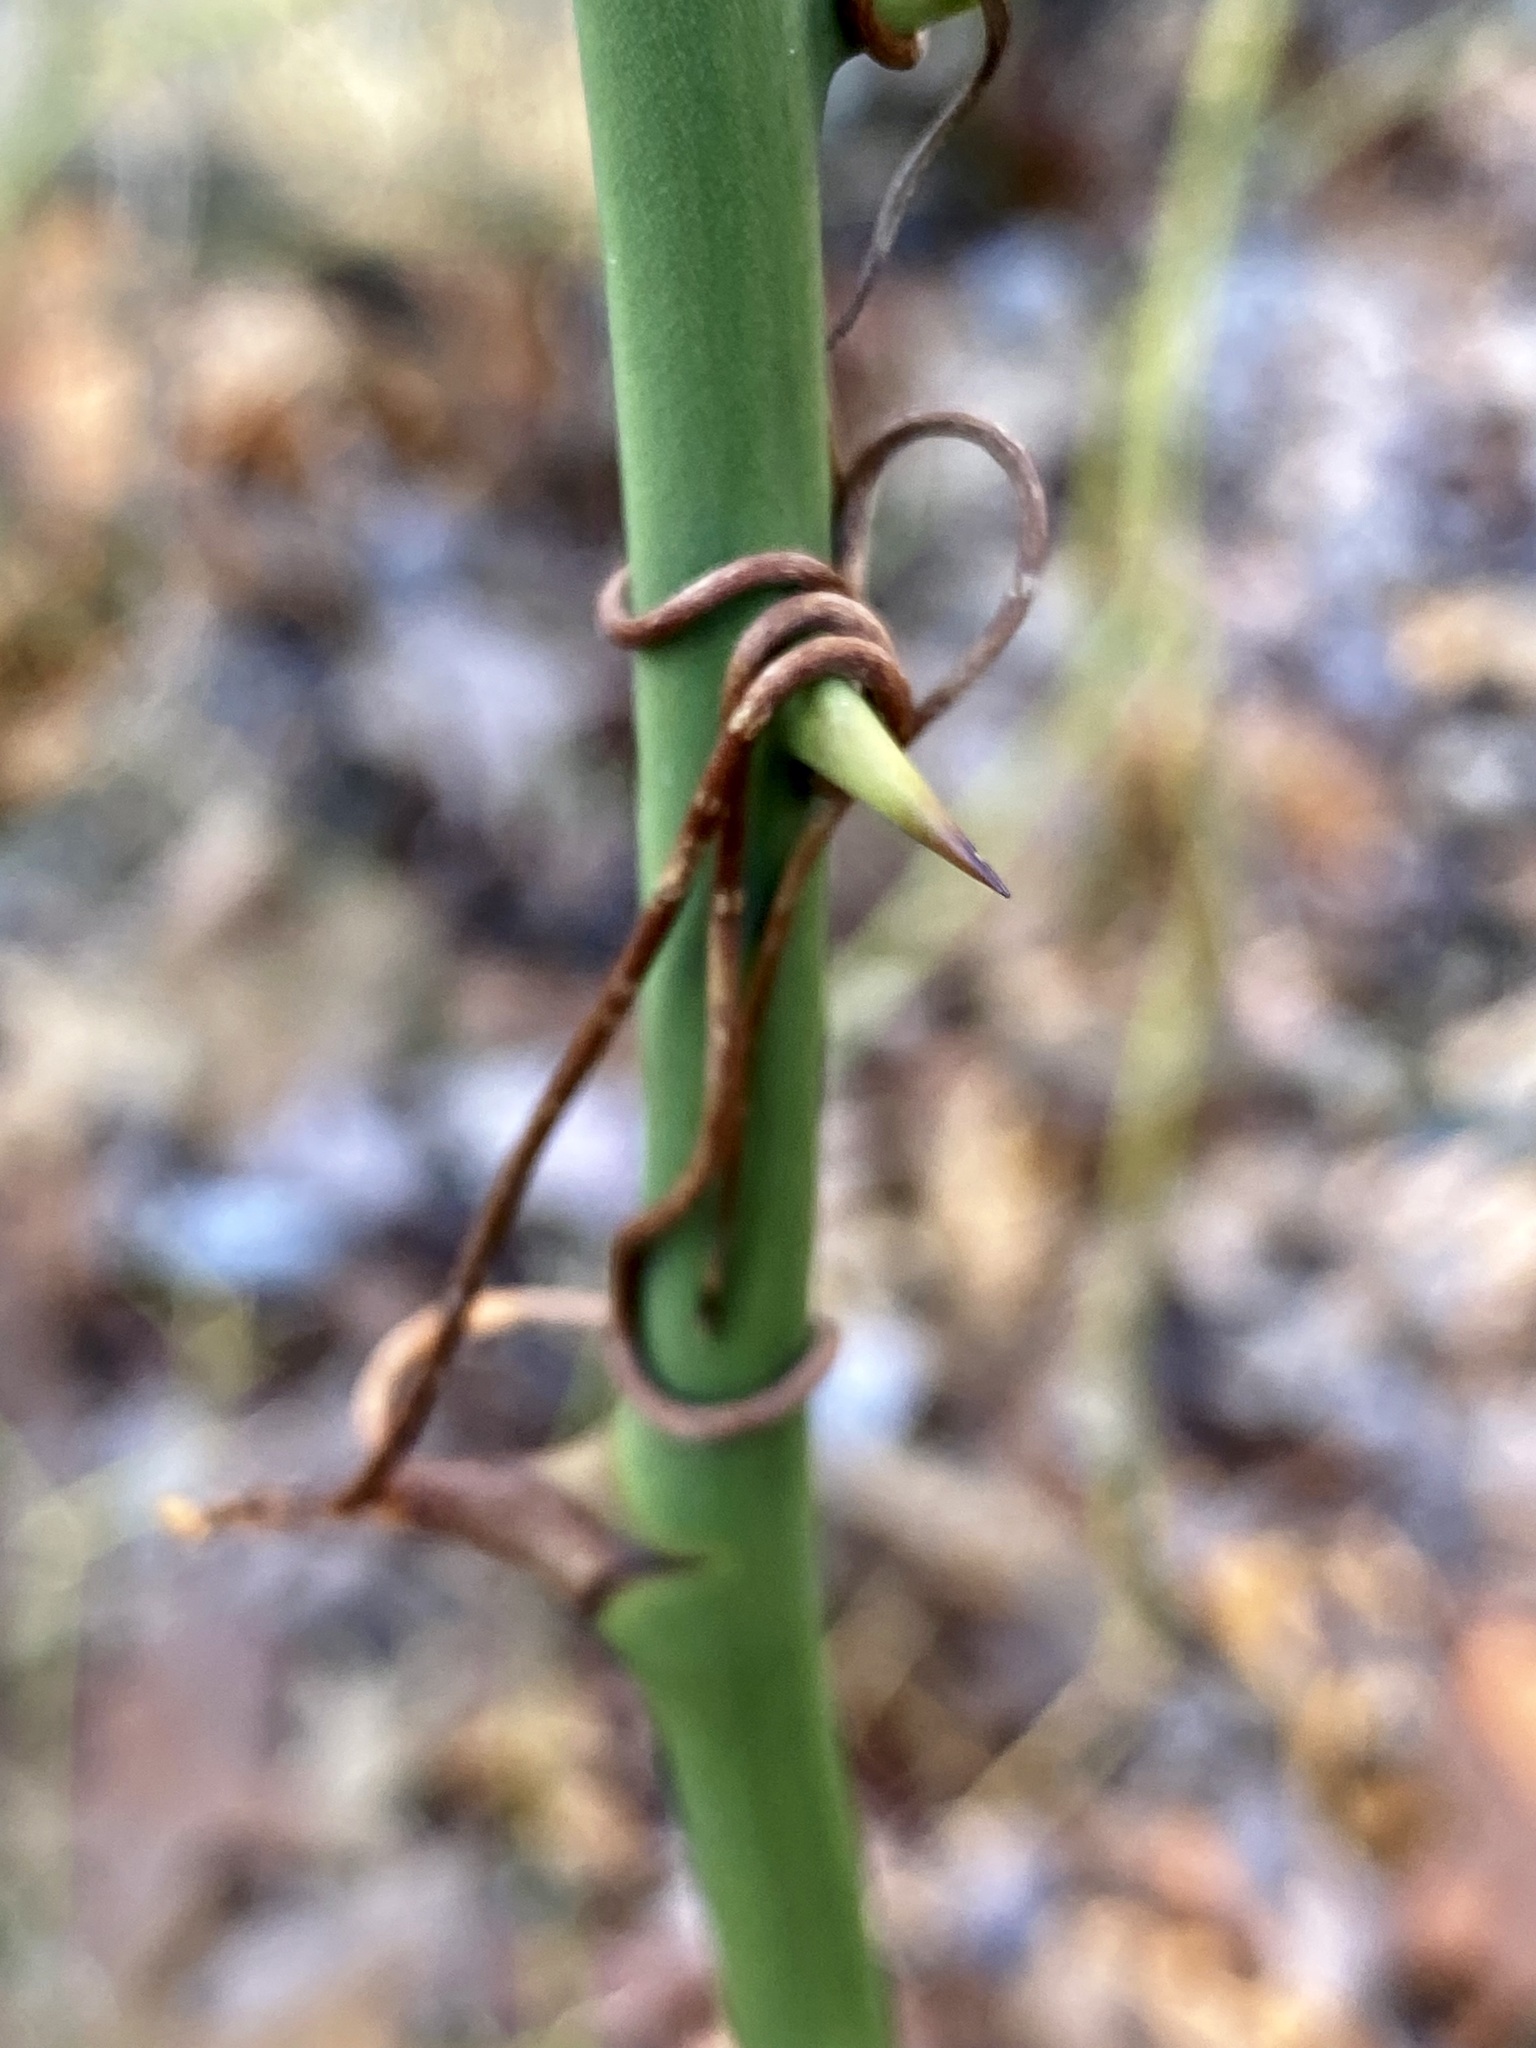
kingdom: Plantae
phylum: Tracheophyta
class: Liliopsida
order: Liliales
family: Smilacaceae
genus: Smilax
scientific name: Smilax rotundifolia
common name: Bullbriar
